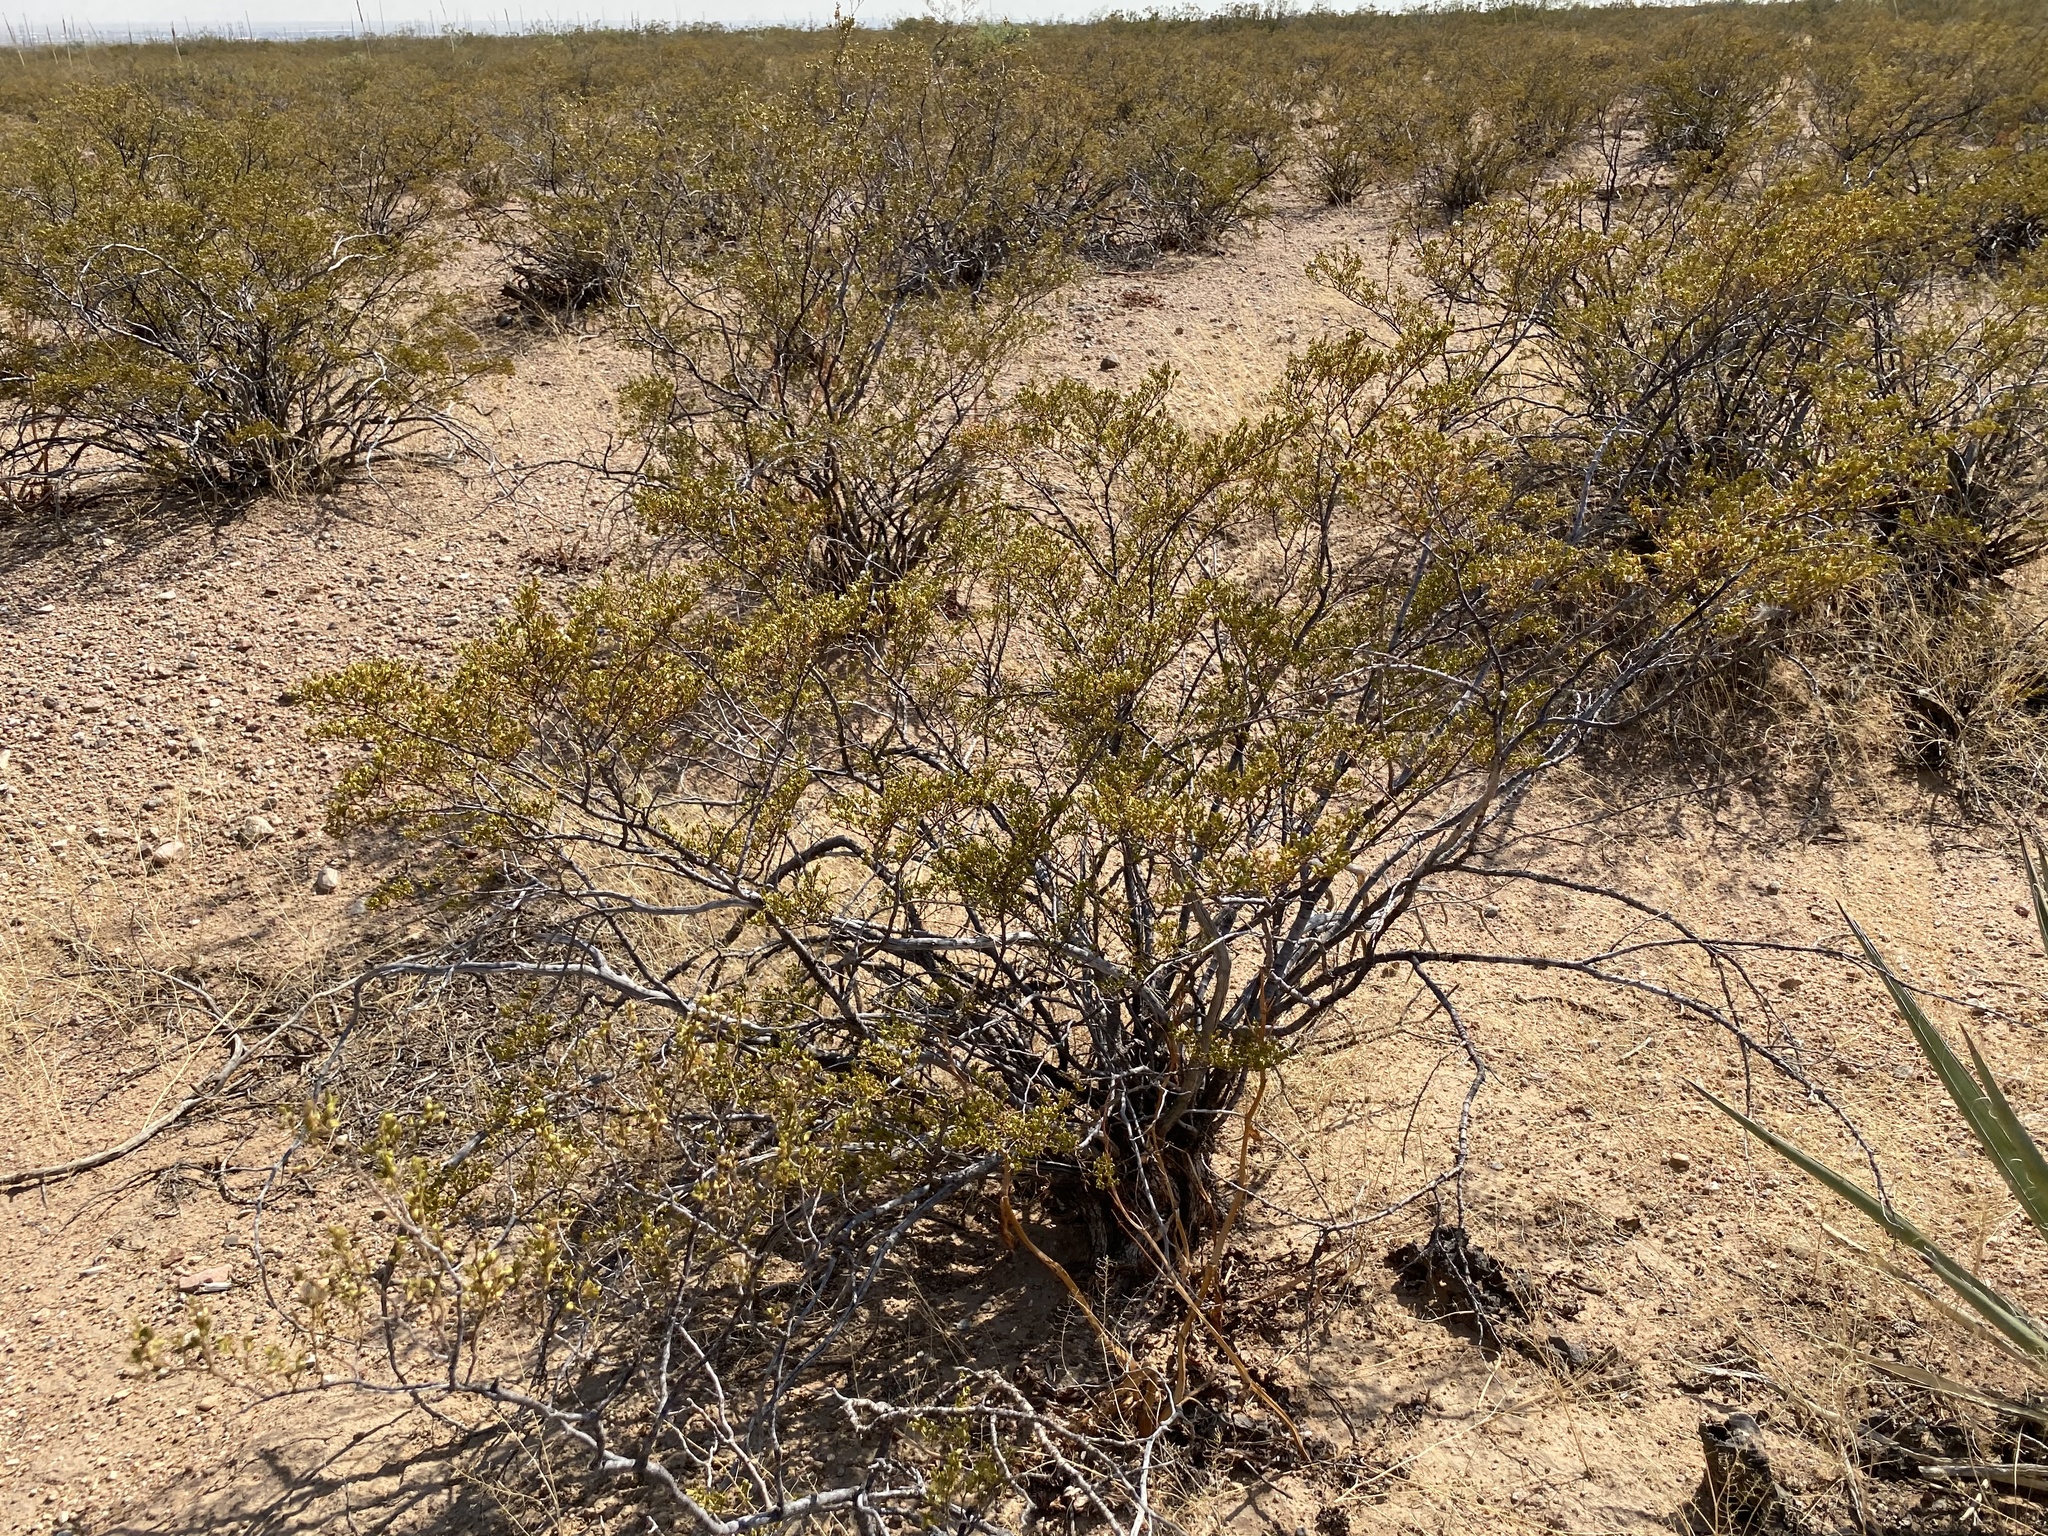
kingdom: Plantae
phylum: Tracheophyta
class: Magnoliopsida
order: Zygophyllales
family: Zygophyllaceae
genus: Larrea
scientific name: Larrea tridentata
